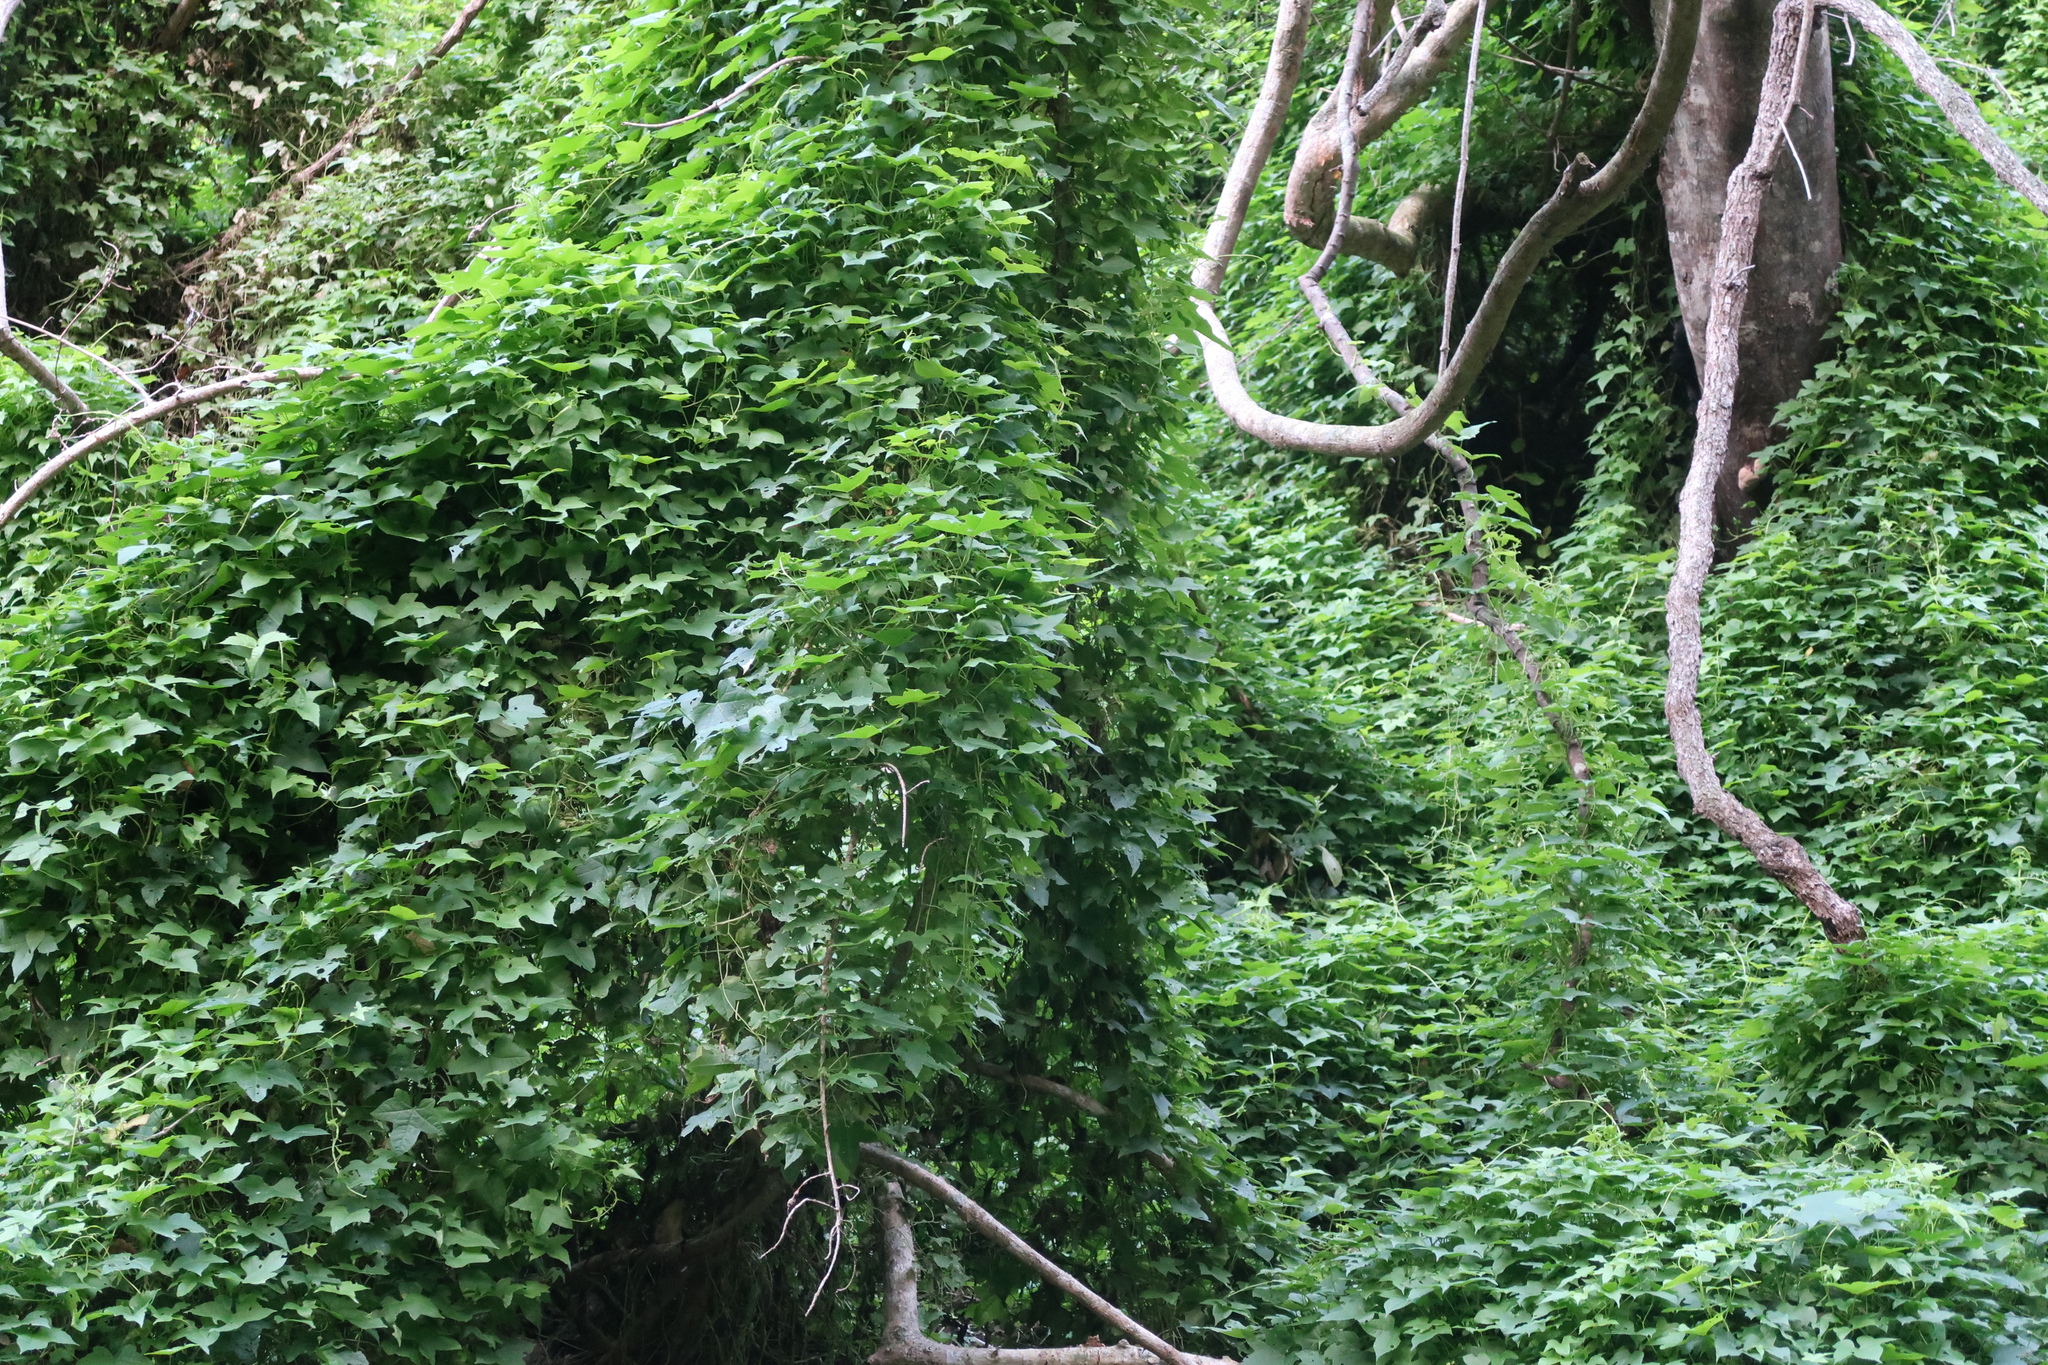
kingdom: Plantae
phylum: Tracheophyta
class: Magnoliopsida
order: Fabales
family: Fabaceae
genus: Dipogon
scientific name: Dipogon lignosus
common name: Okie bean
